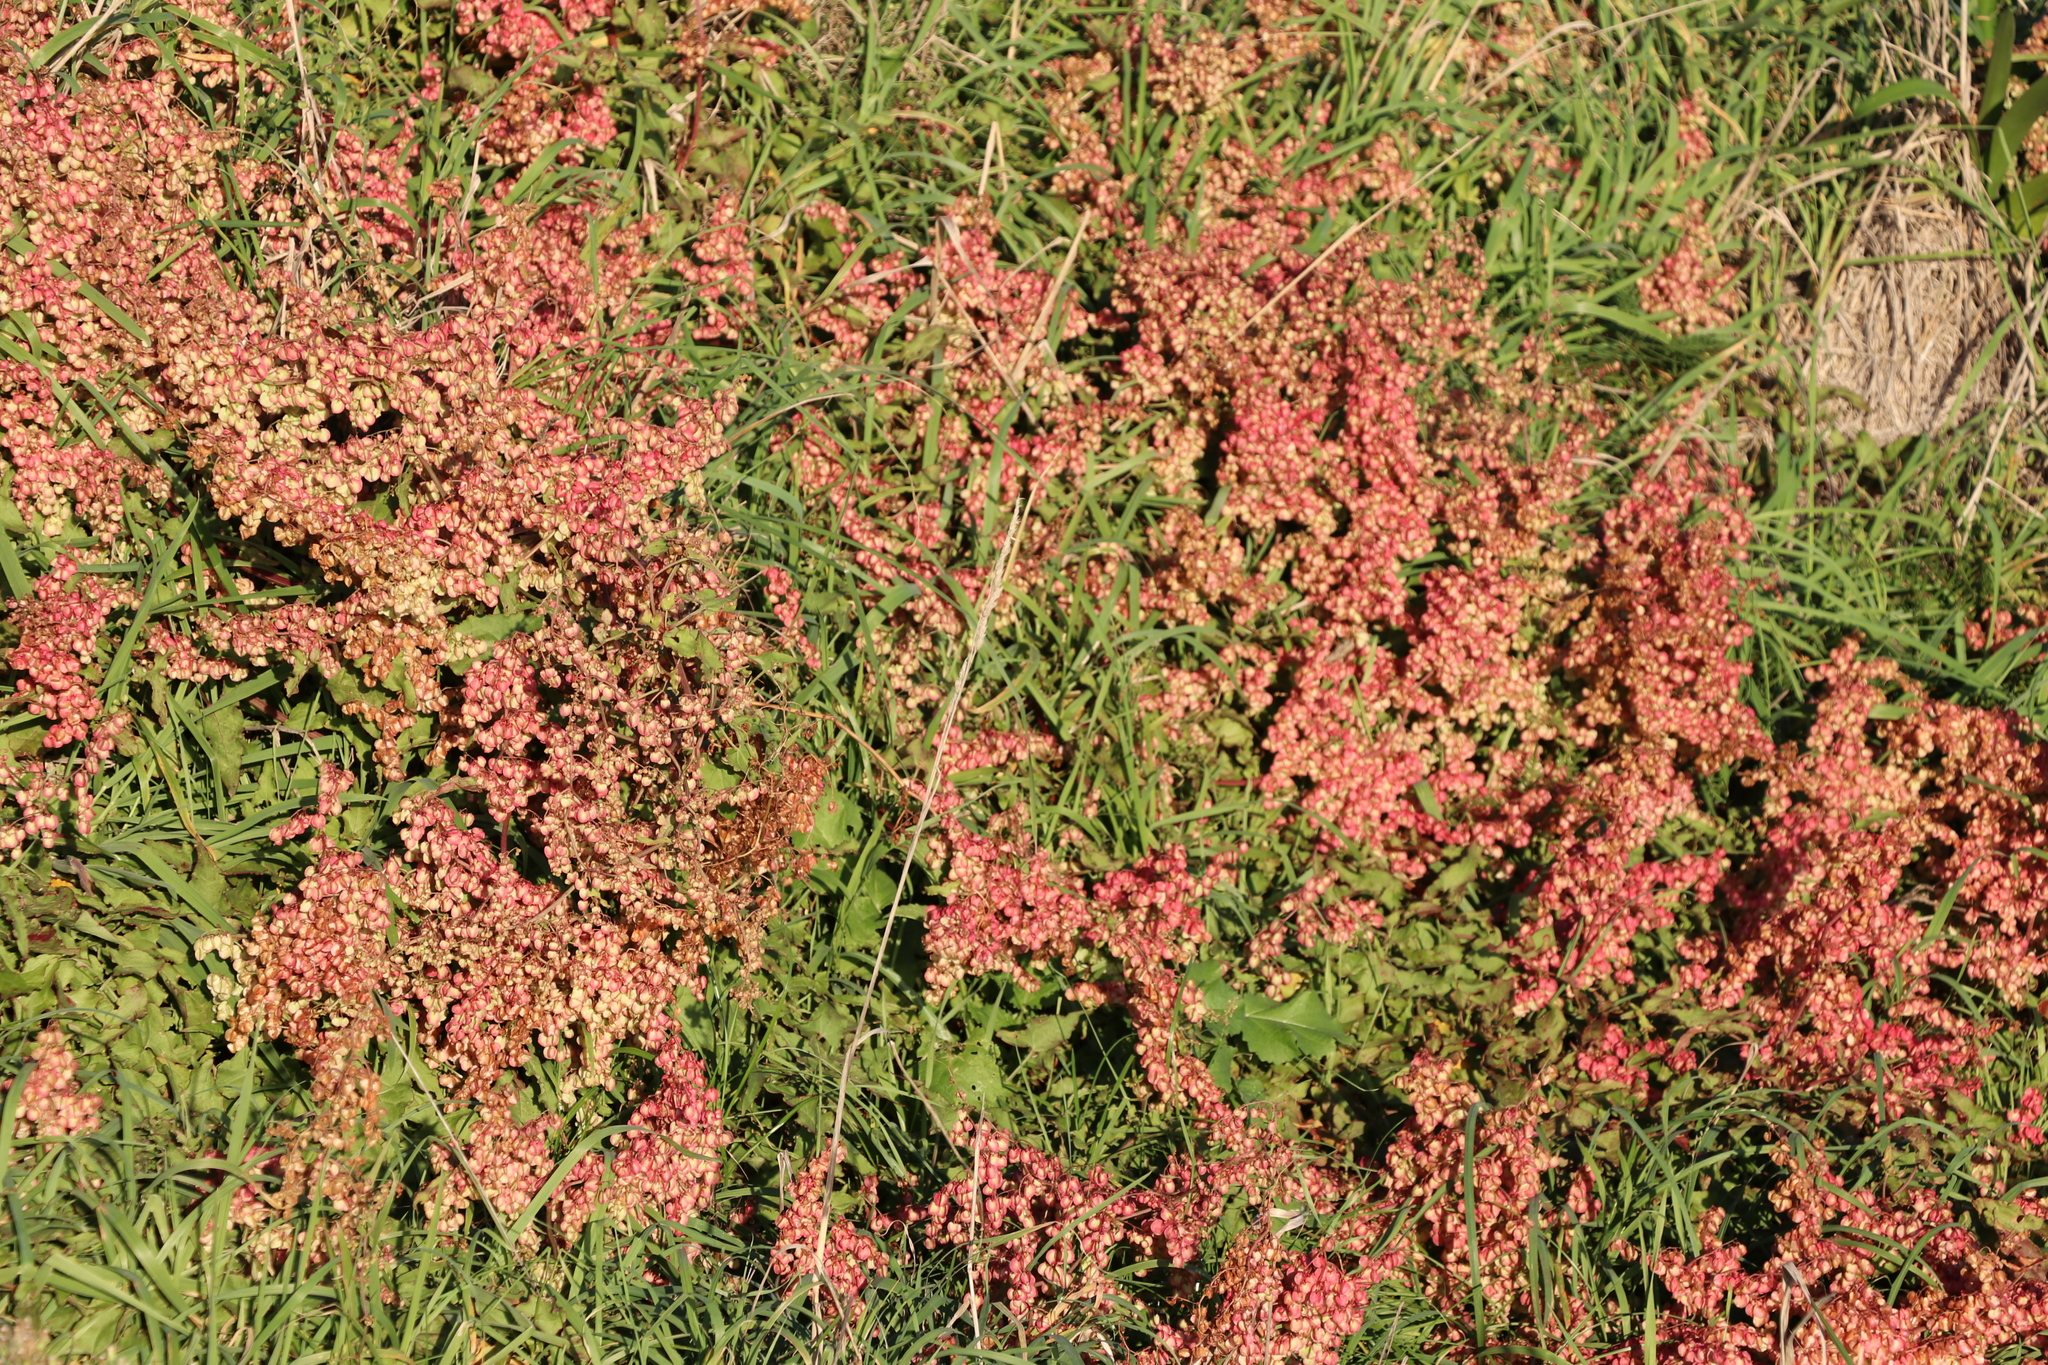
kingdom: Plantae
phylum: Tracheophyta
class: Magnoliopsida
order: Caryophyllales
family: Polygonaceae
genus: Rumex
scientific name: Rumex sagittatus
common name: Climbing dock
